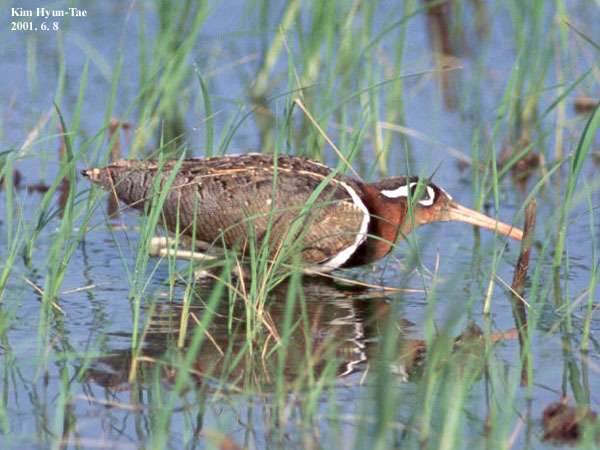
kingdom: Animalia
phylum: Chordata
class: Aves
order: Charadriiformes
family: Rostratulidae
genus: Rostratula
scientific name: Rostratula benghalensis
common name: Greater painted-snipe
